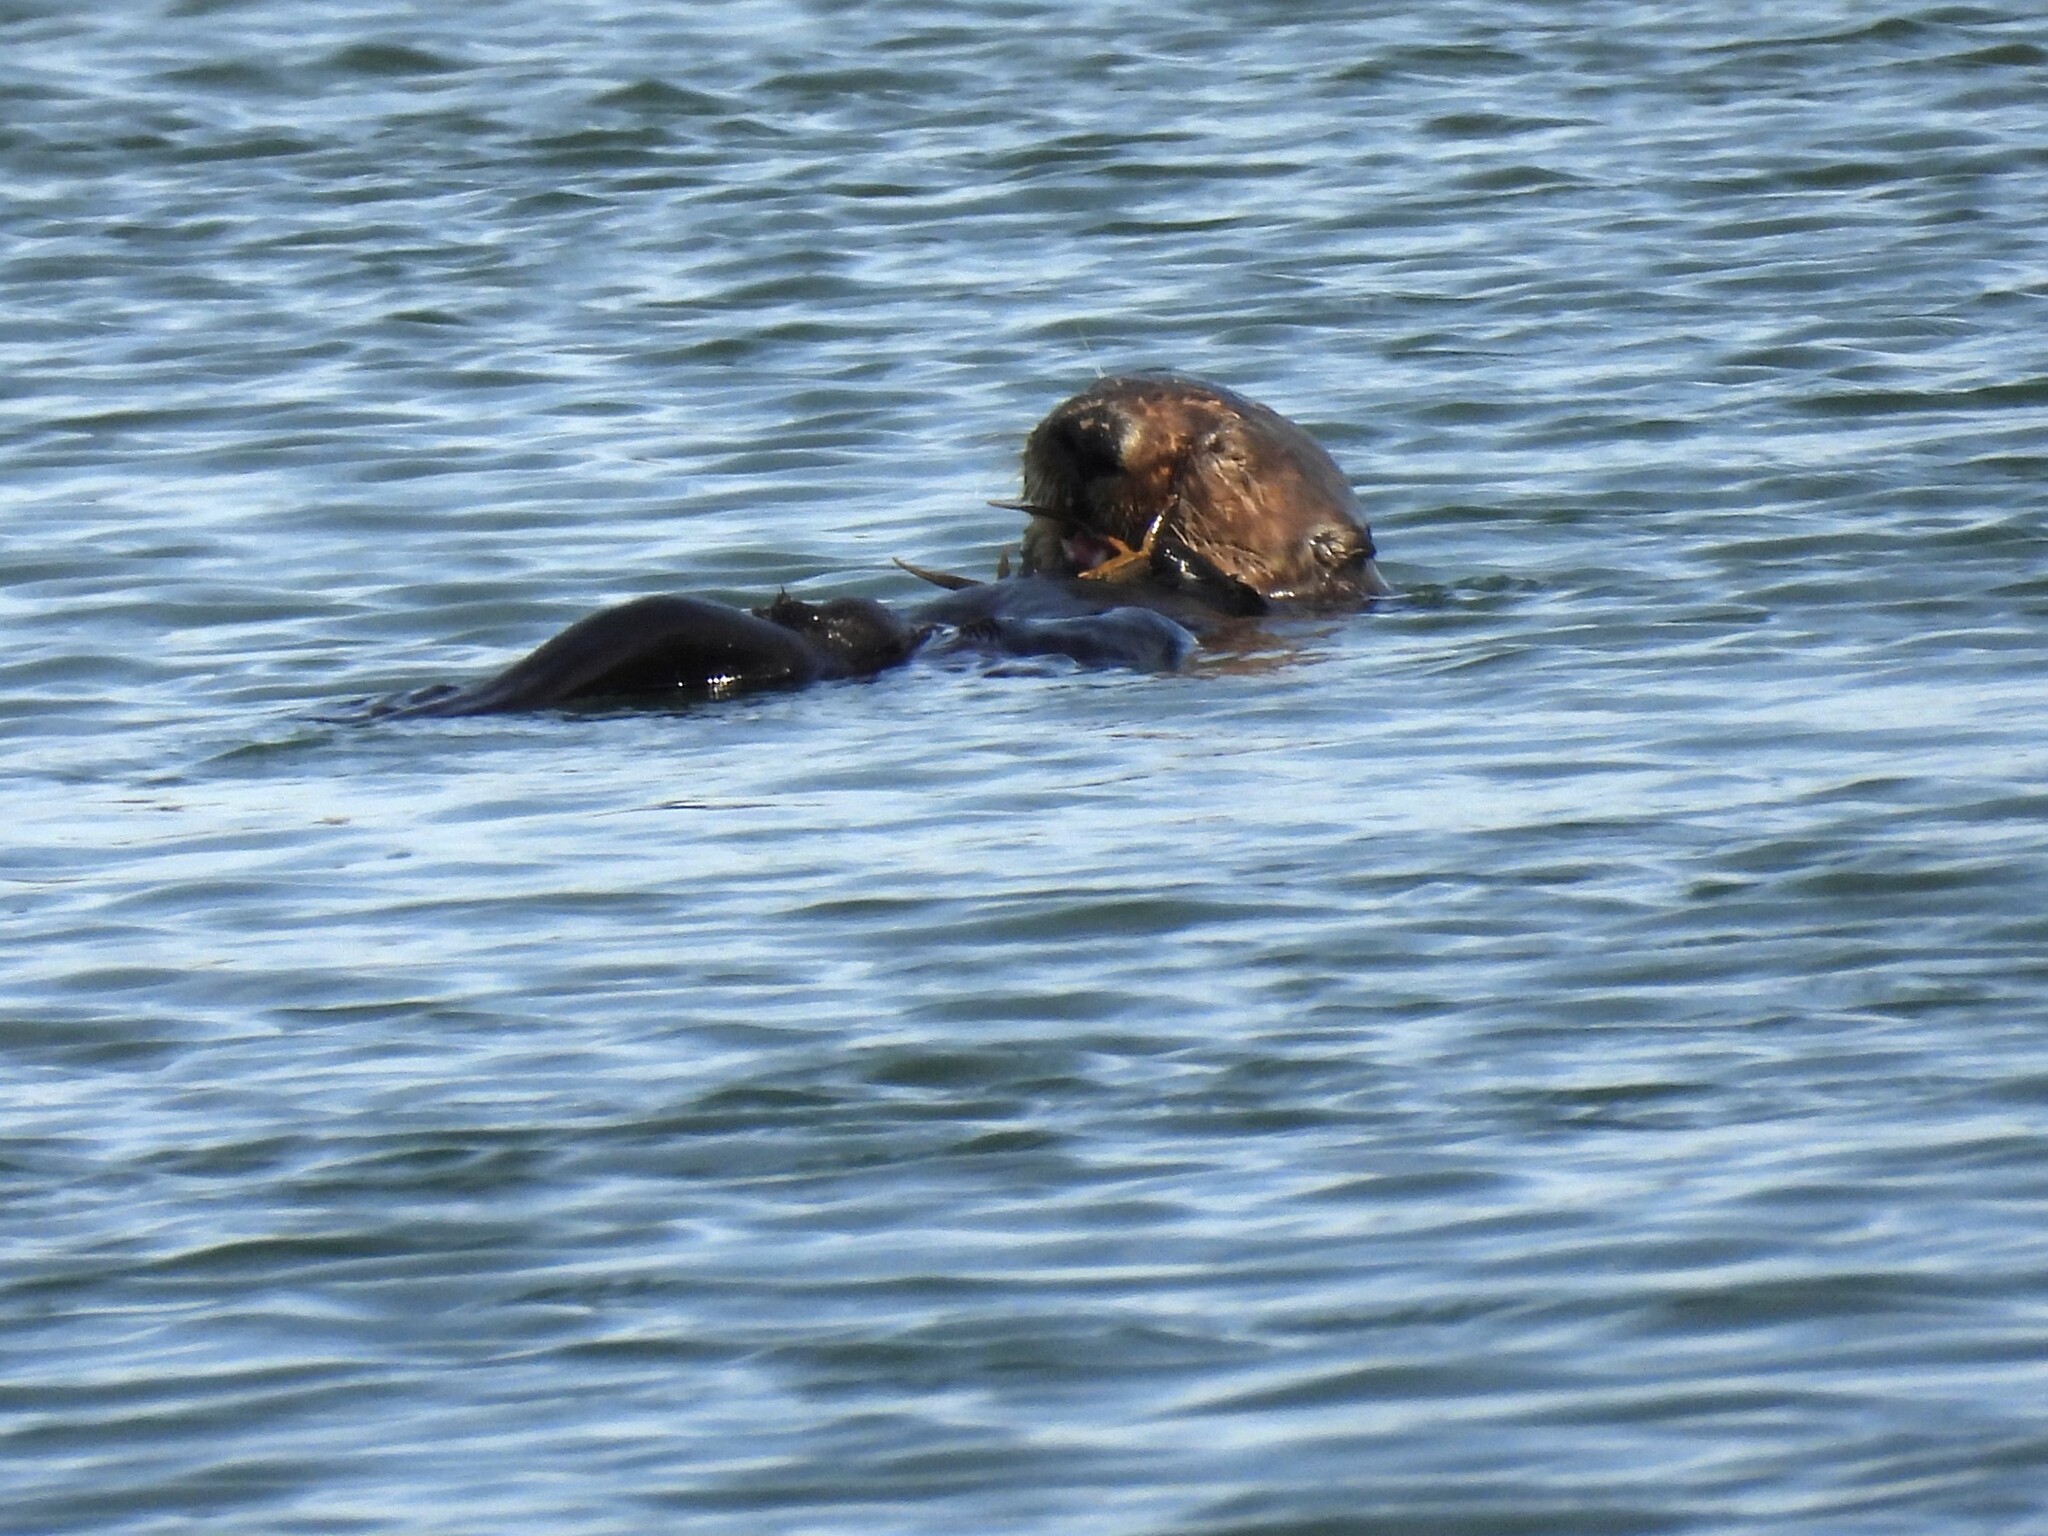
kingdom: Animalia
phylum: Chordata
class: Mammalia
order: Carnivora
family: Mustelidae
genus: Enhydra
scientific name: Enhydra lutris
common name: Sea otter
